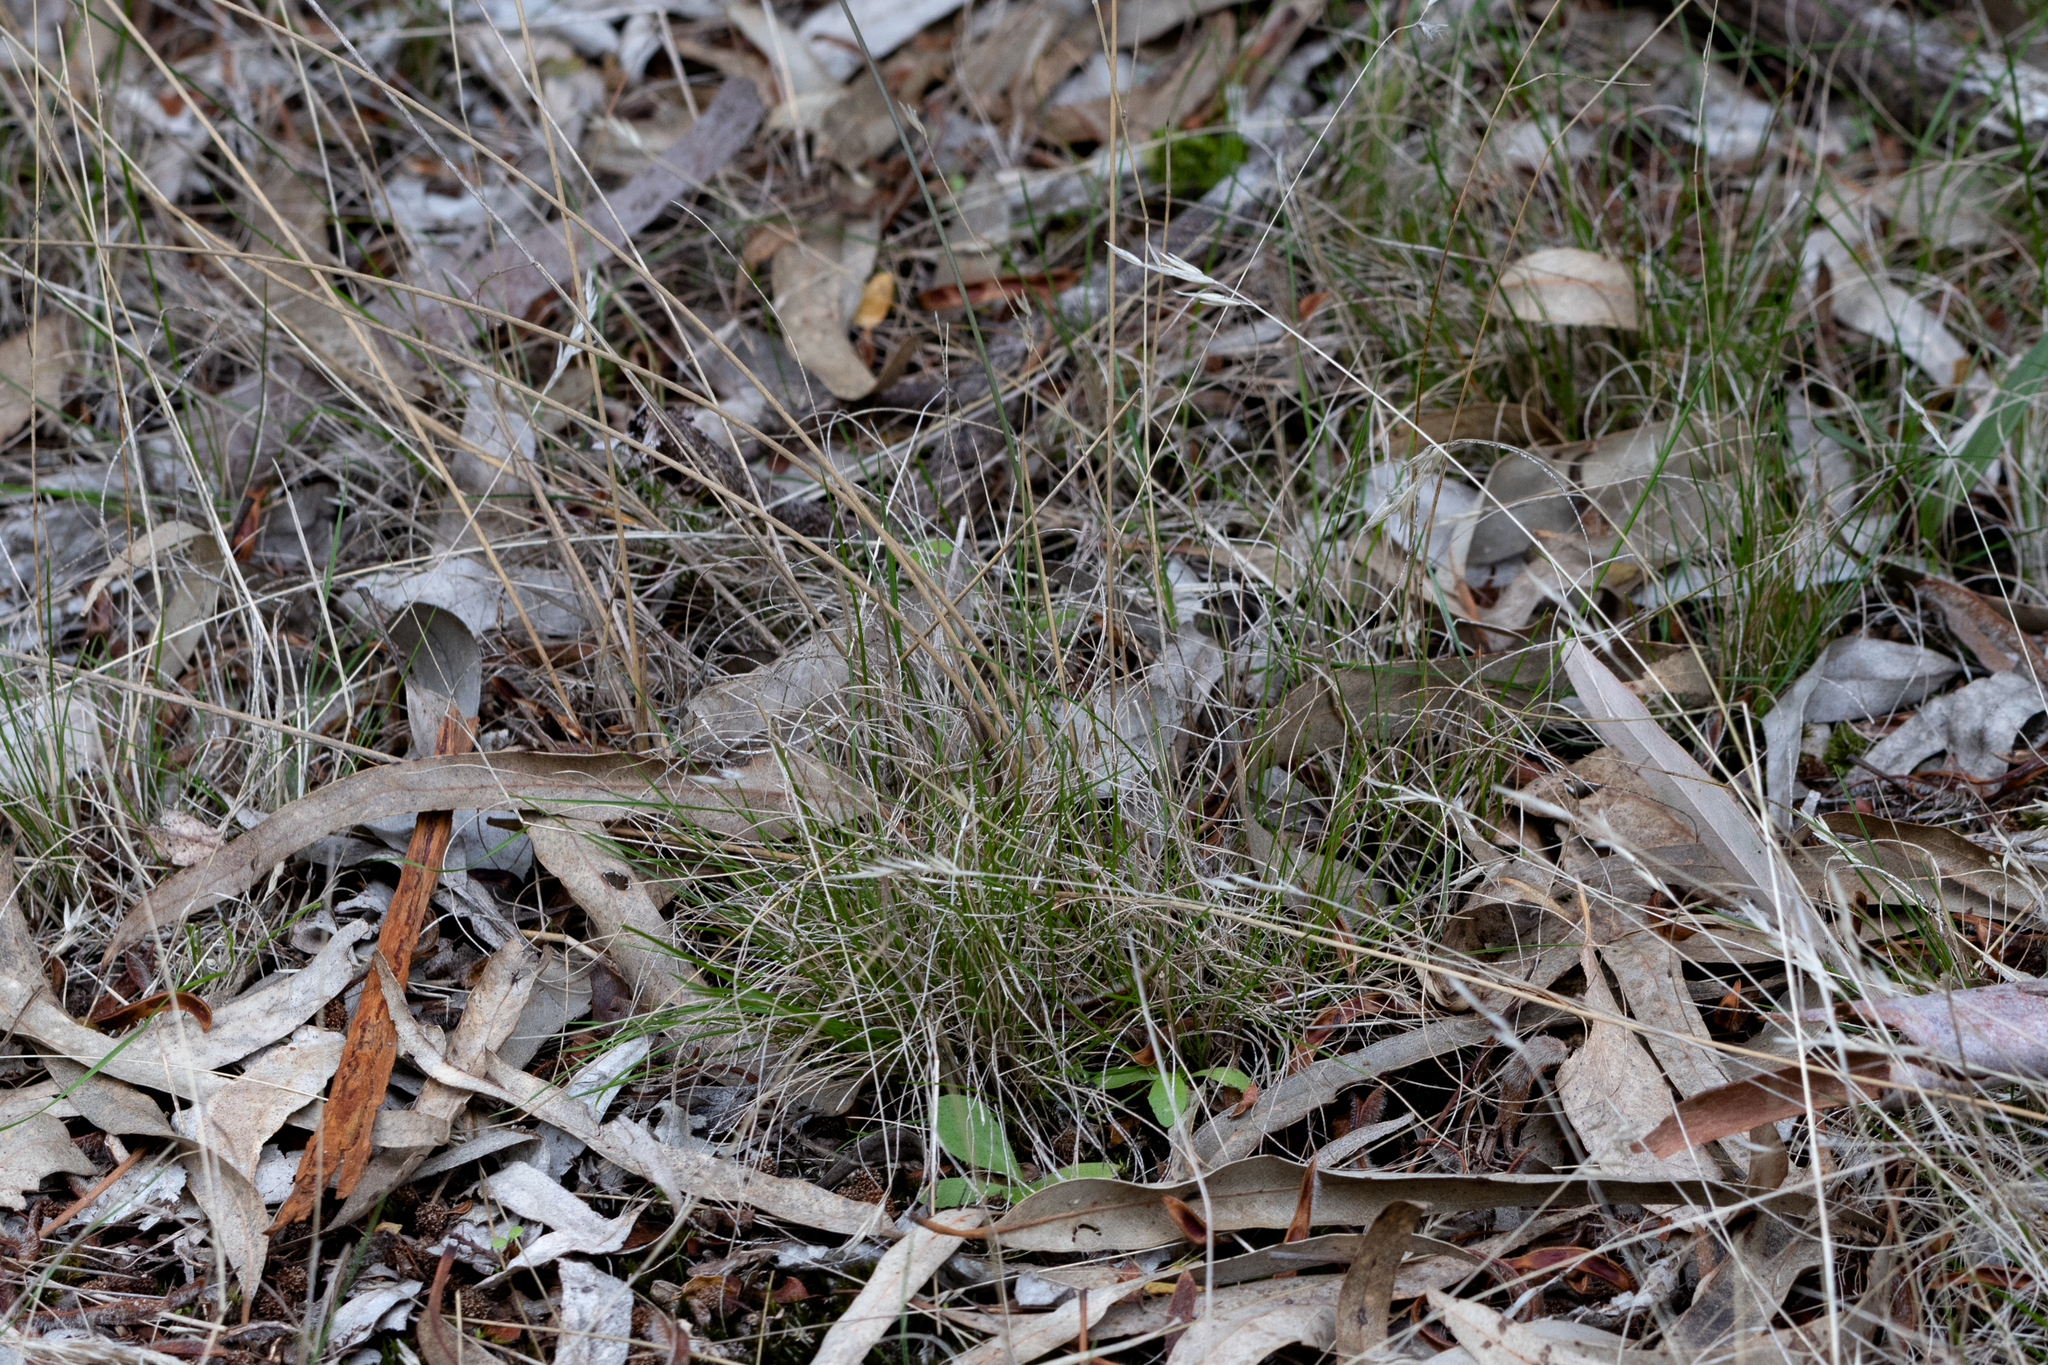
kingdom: Plantae
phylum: Tracheophyta
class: Liliopsida
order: Poales
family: Poaceae
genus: Rytidosperma
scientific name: Rytidosperma geniculatum
